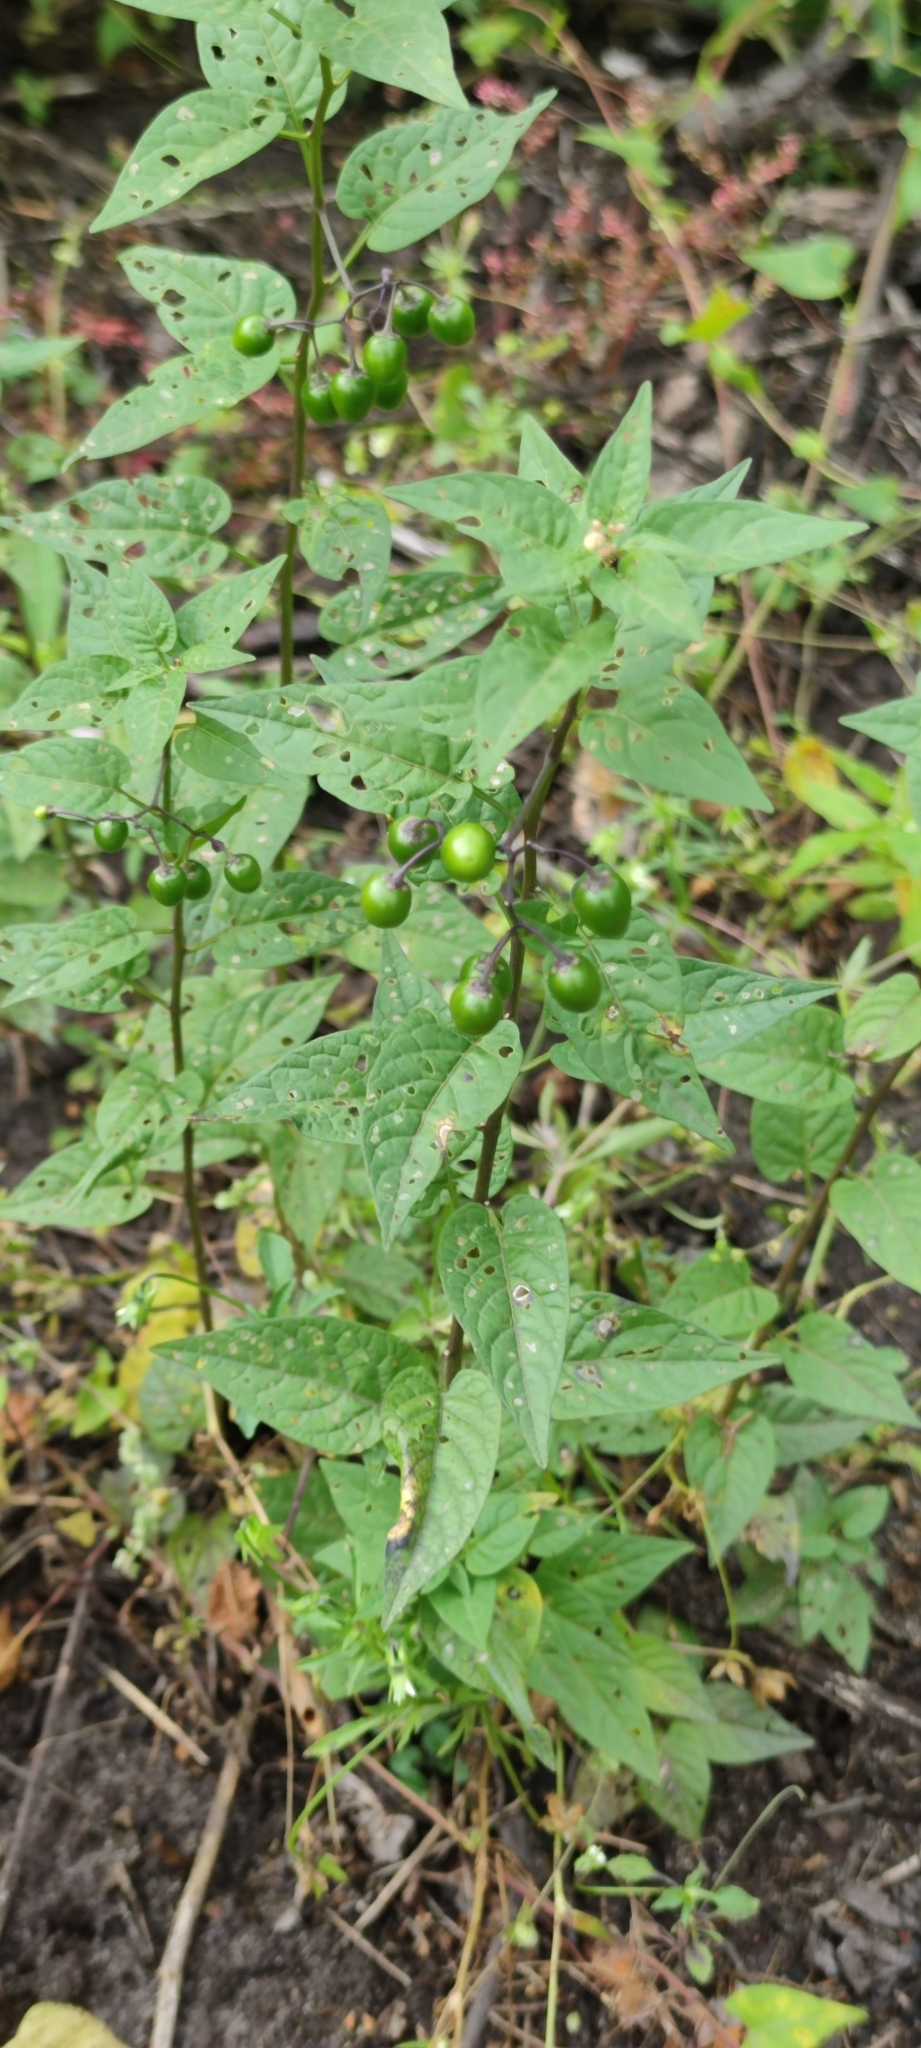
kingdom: Plantae
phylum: Tracheophyta
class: Magnoliopsida
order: Solanales
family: Solanaceae
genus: Solanum
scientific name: Solanum dulcamara
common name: Climbing nightshade
